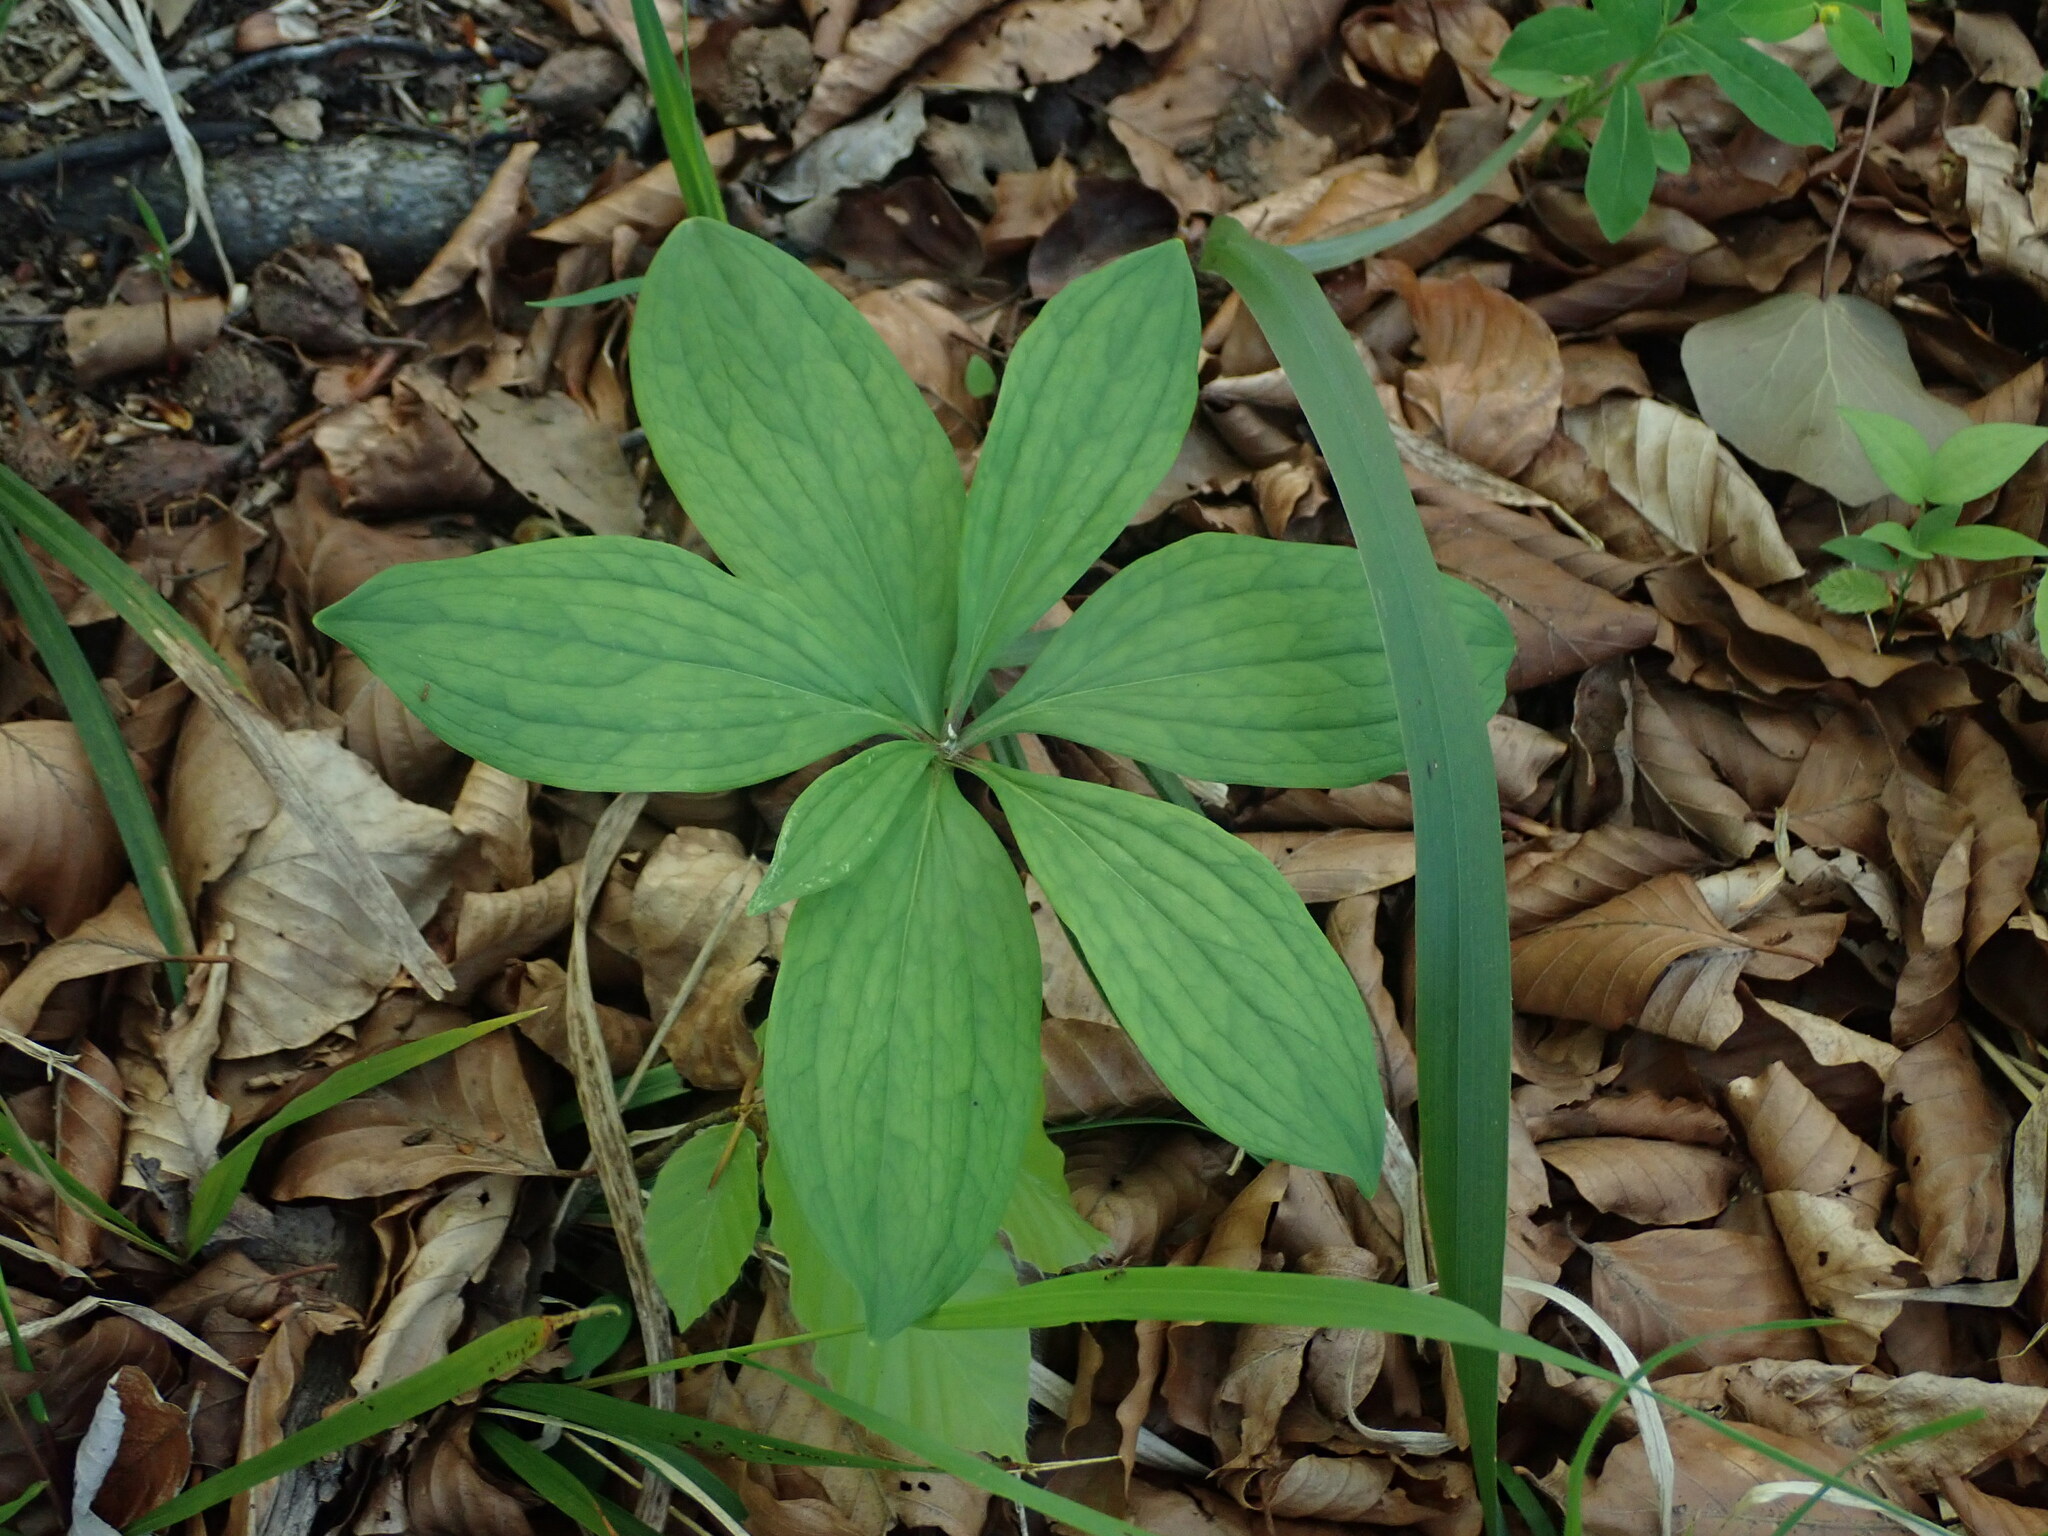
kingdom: Plantae
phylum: Tracheophyta
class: Liliopsida
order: Liliales
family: Liliaceae
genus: Lilium
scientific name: Lilium martagon
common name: Martagon lily
